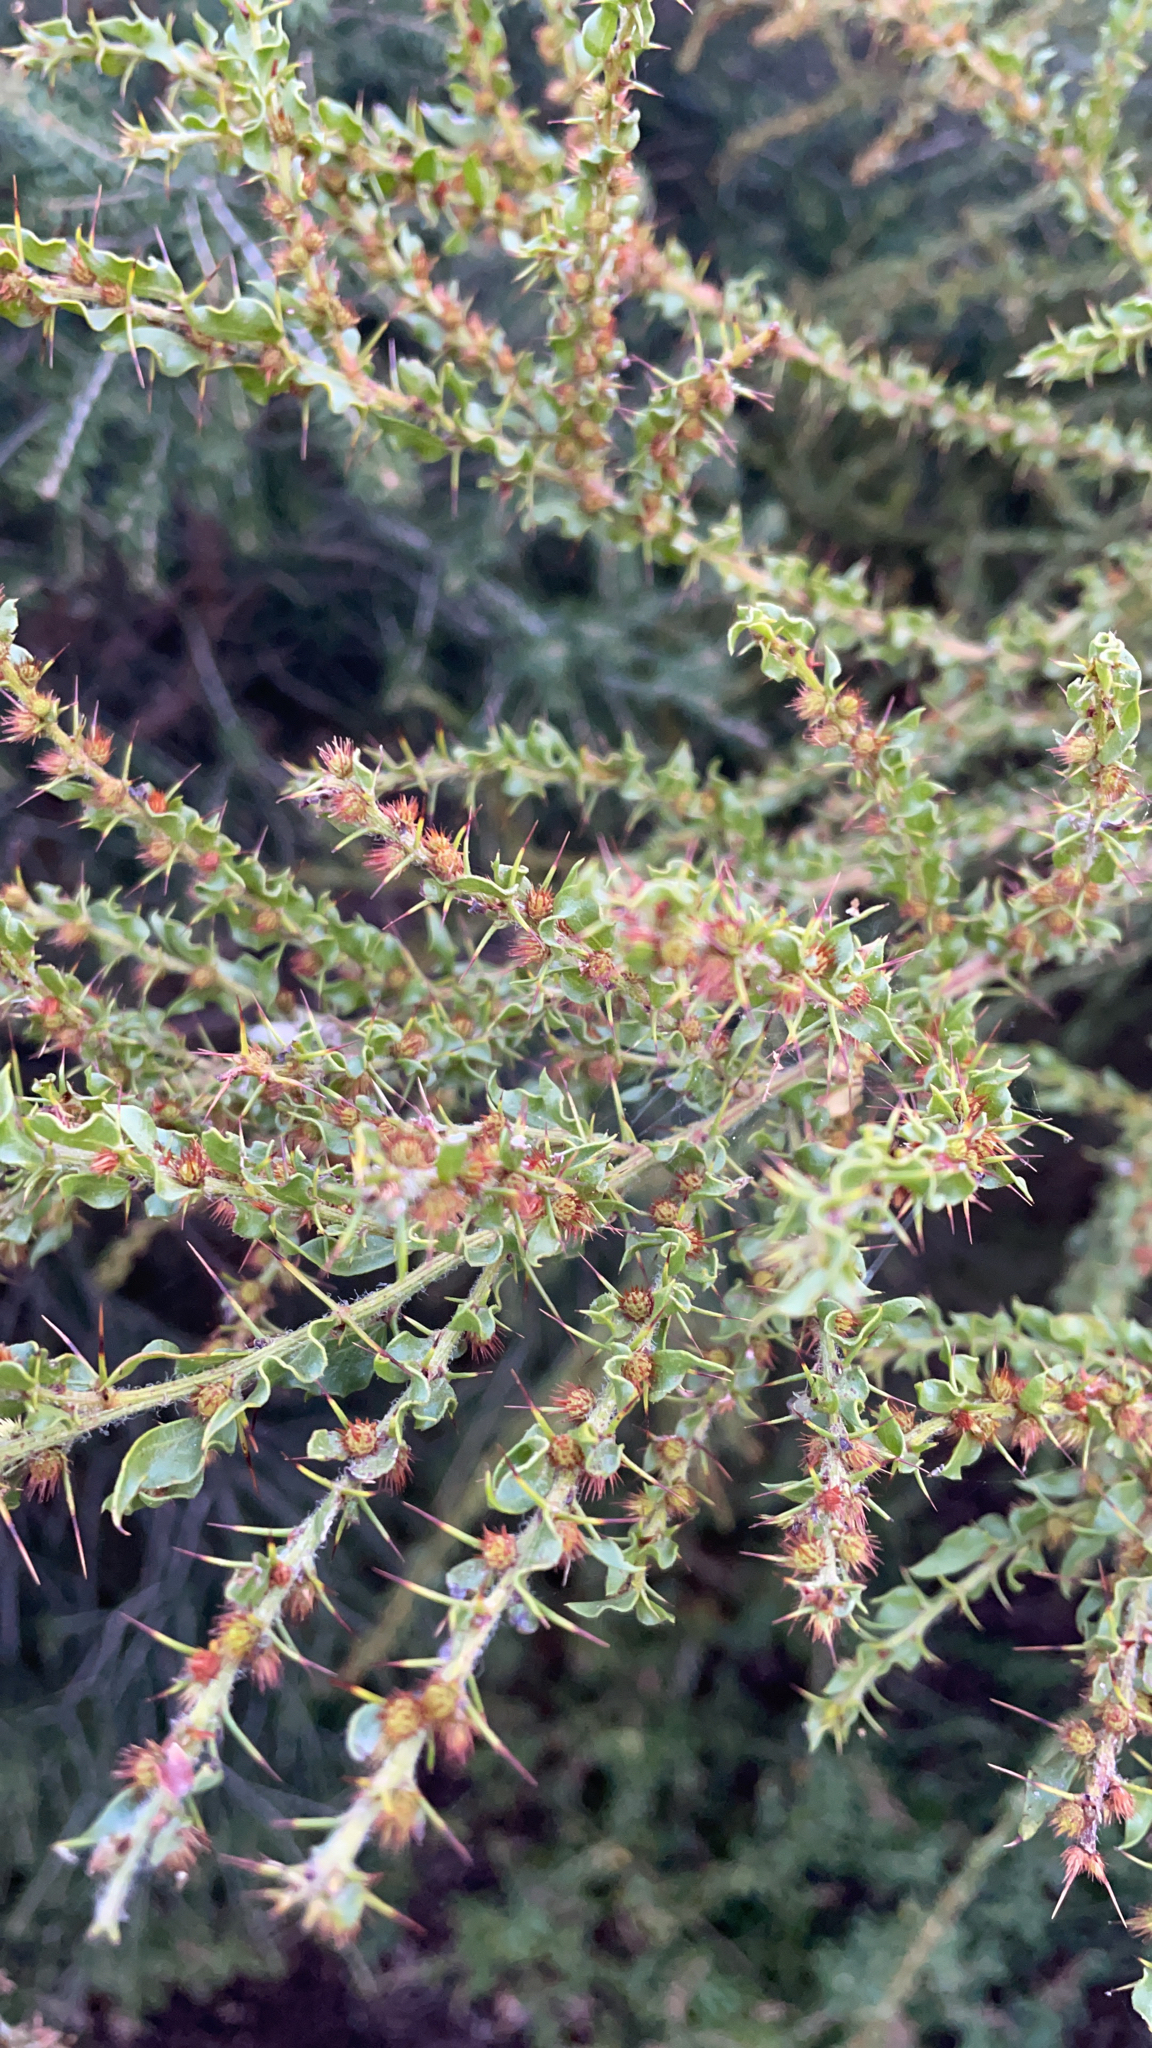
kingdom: Plantae
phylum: Tracheophyta
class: Magnoliopsida
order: Fabales
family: Fabaceae
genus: Acacia
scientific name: Acacia paradoxa
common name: Paradox acacia
